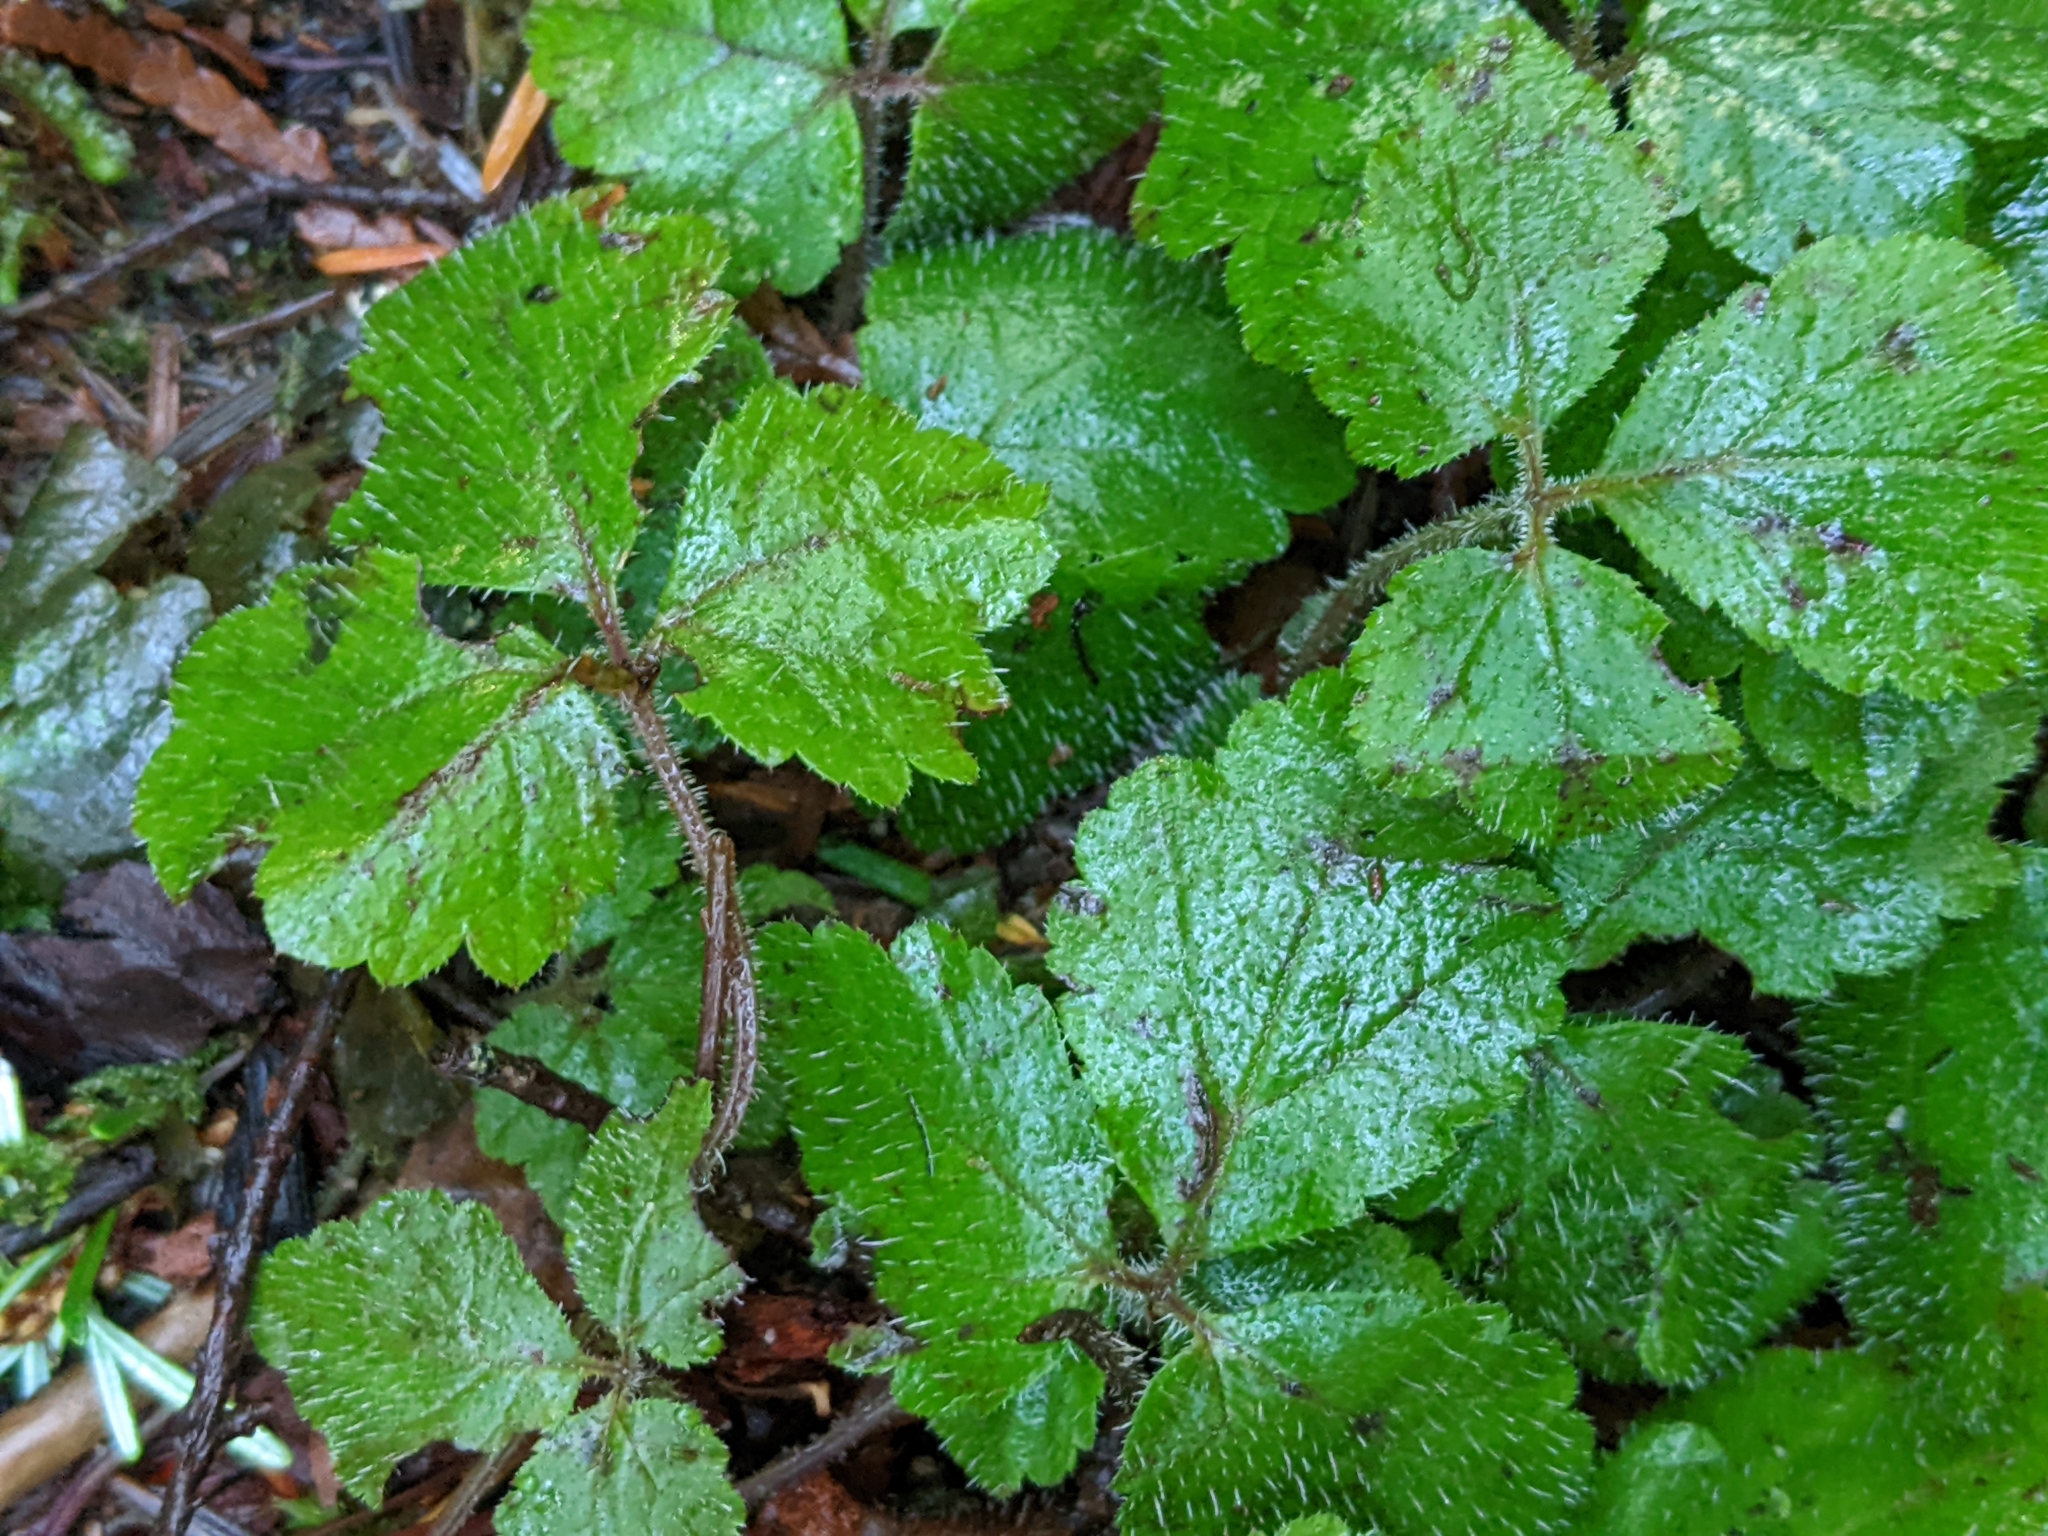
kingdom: Plantae
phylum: Tracheophyta
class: Magnoliopsida
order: Saxifragales
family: Saxifragaceae
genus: Tiarella
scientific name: Tiarella trifoliata
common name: Sugar-scoop
